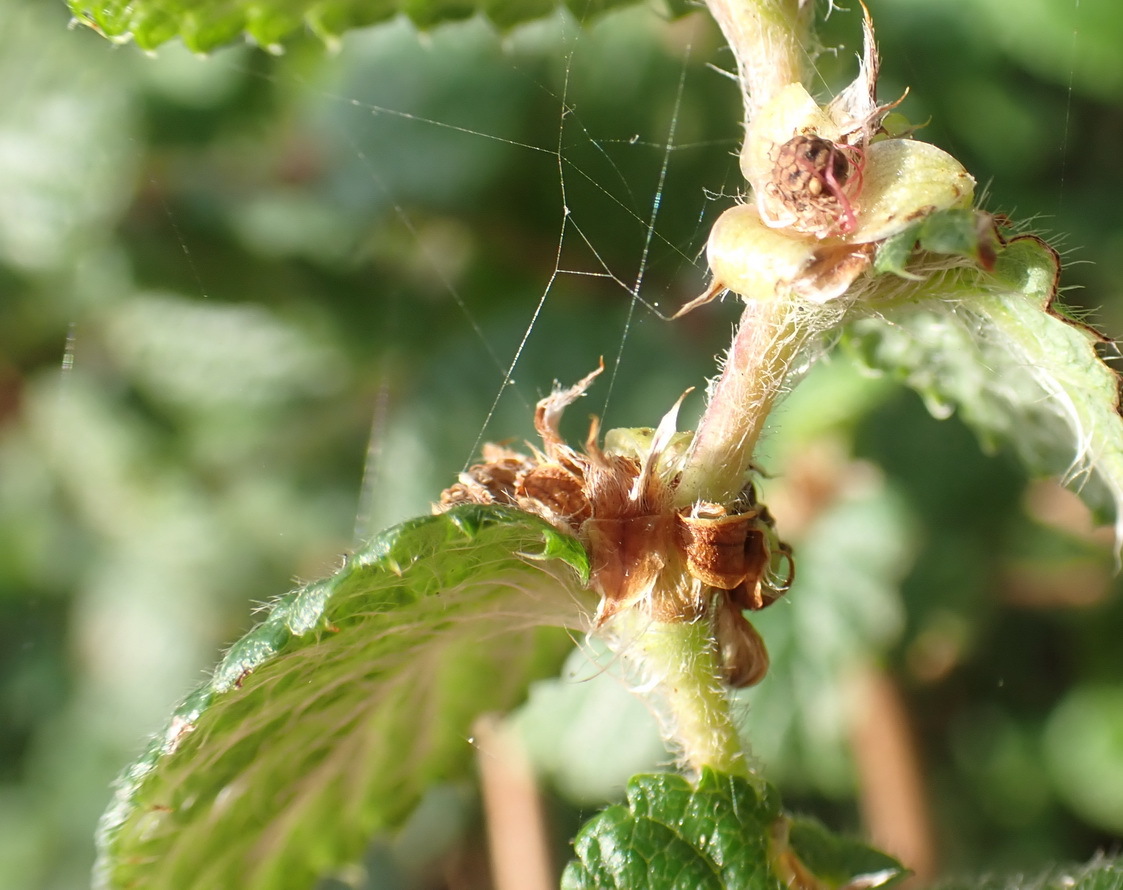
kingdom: Plantae
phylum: Tracheophyta
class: Magnoliopsida
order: Rosales
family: Rosaceae
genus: Cliffortia
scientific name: Cliffortia odorata
